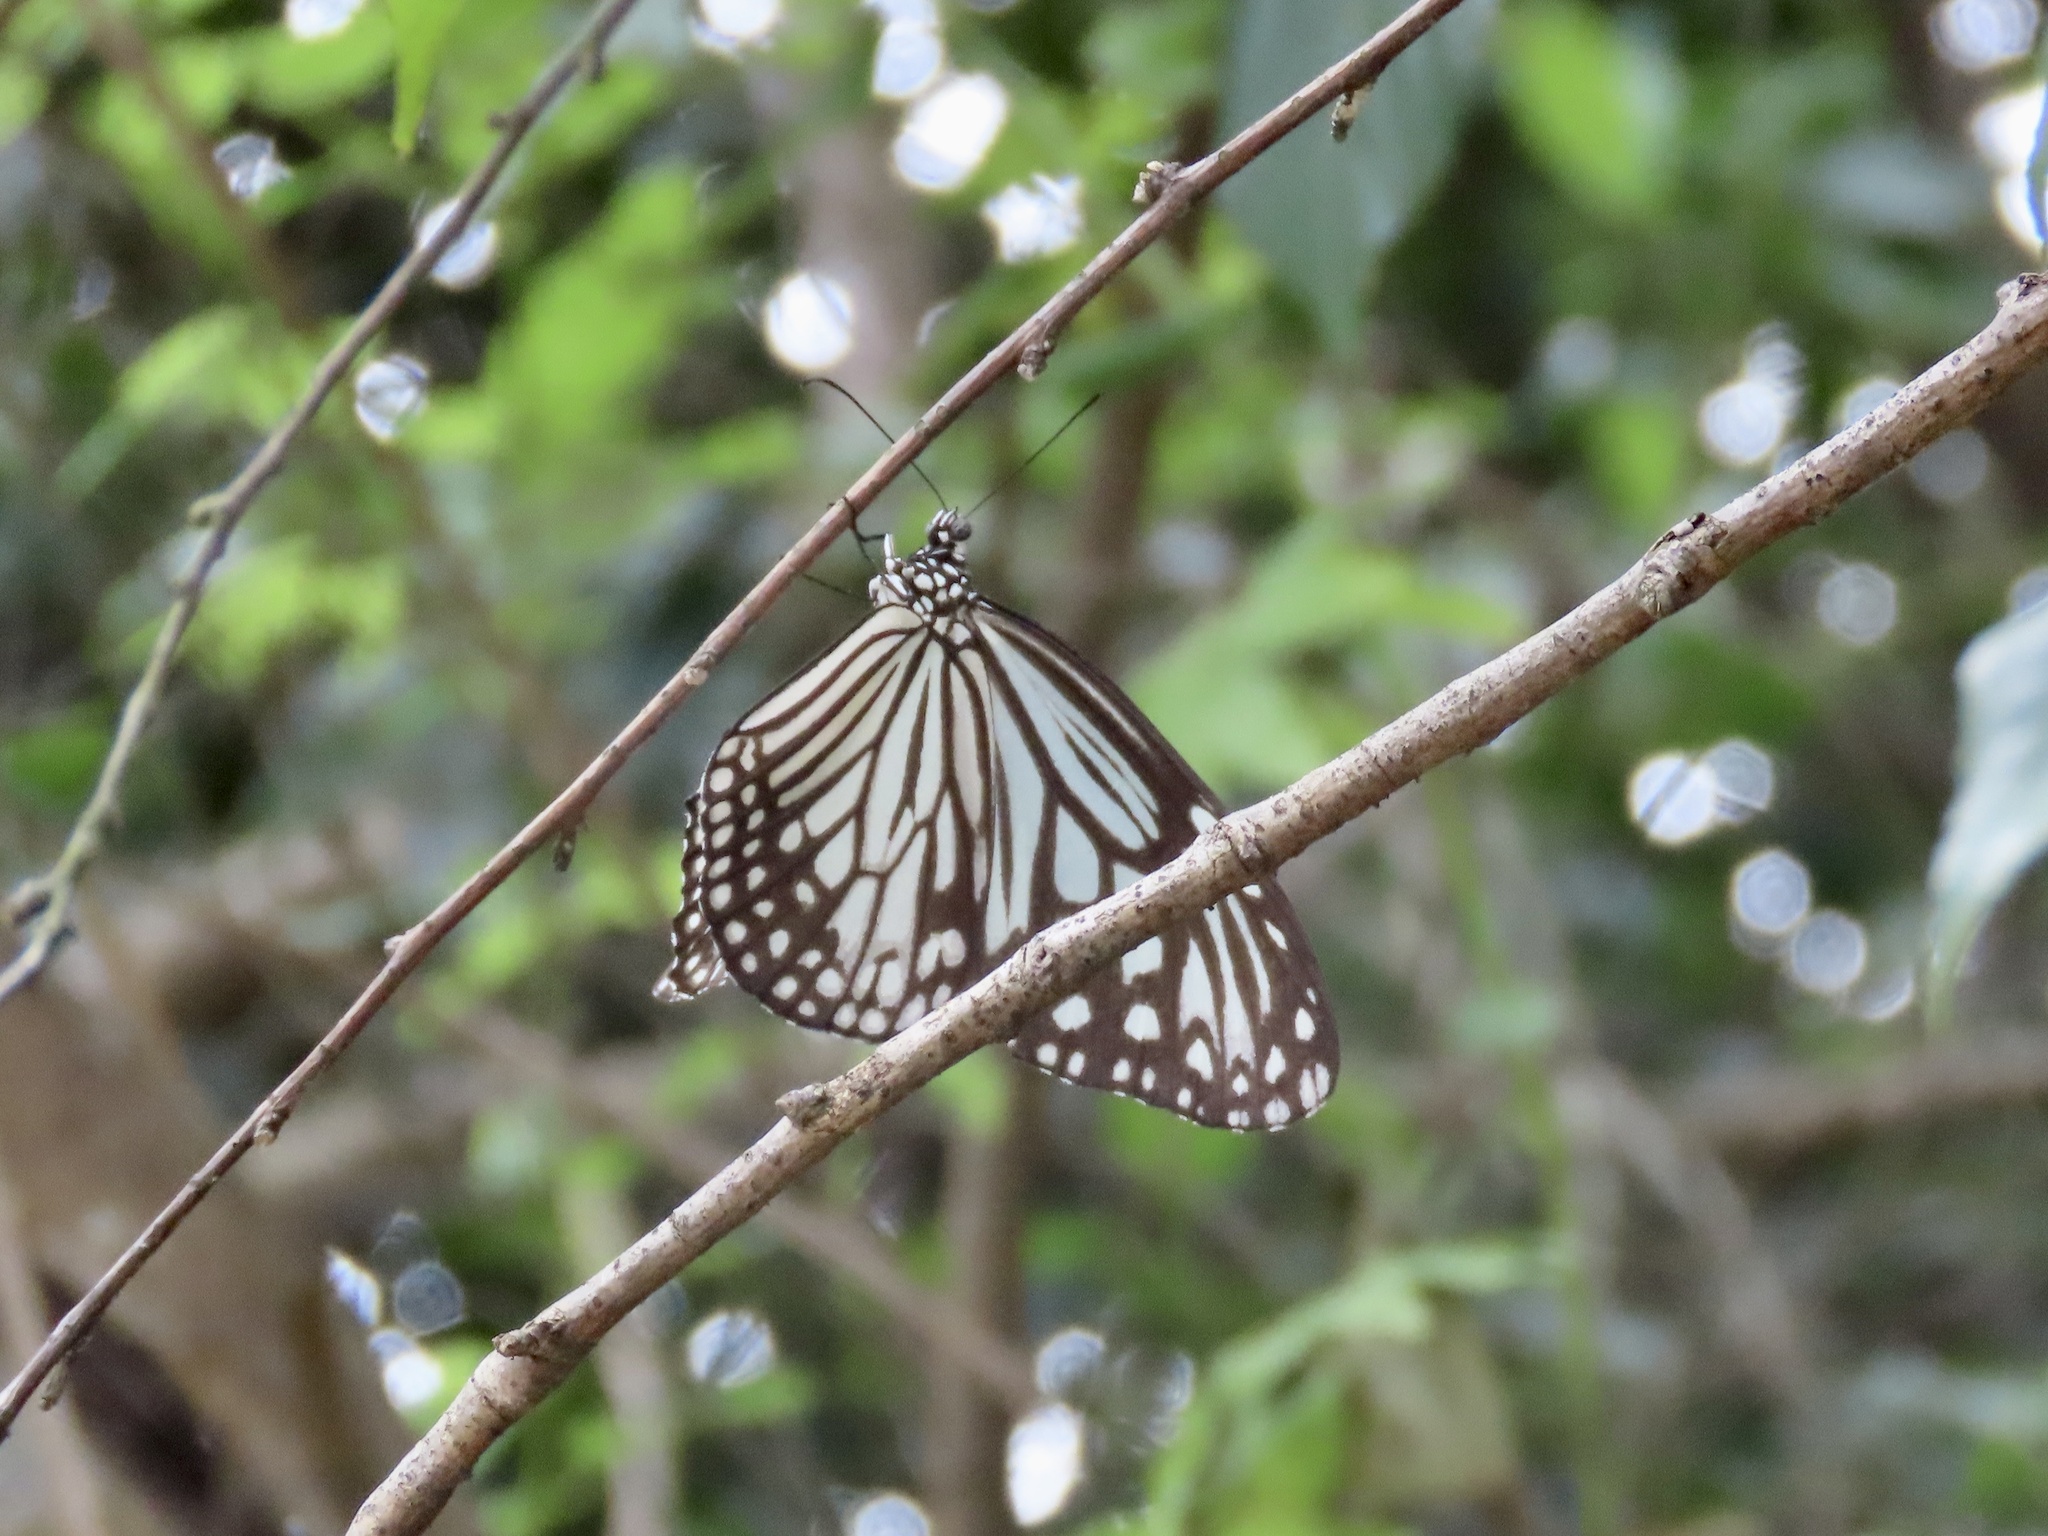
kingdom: Animalia
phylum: Arthropoda
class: Insecta
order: Lepidoptera
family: Nymphalidae
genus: Parantica
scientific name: Parantica aglea
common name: Glassy tiger
